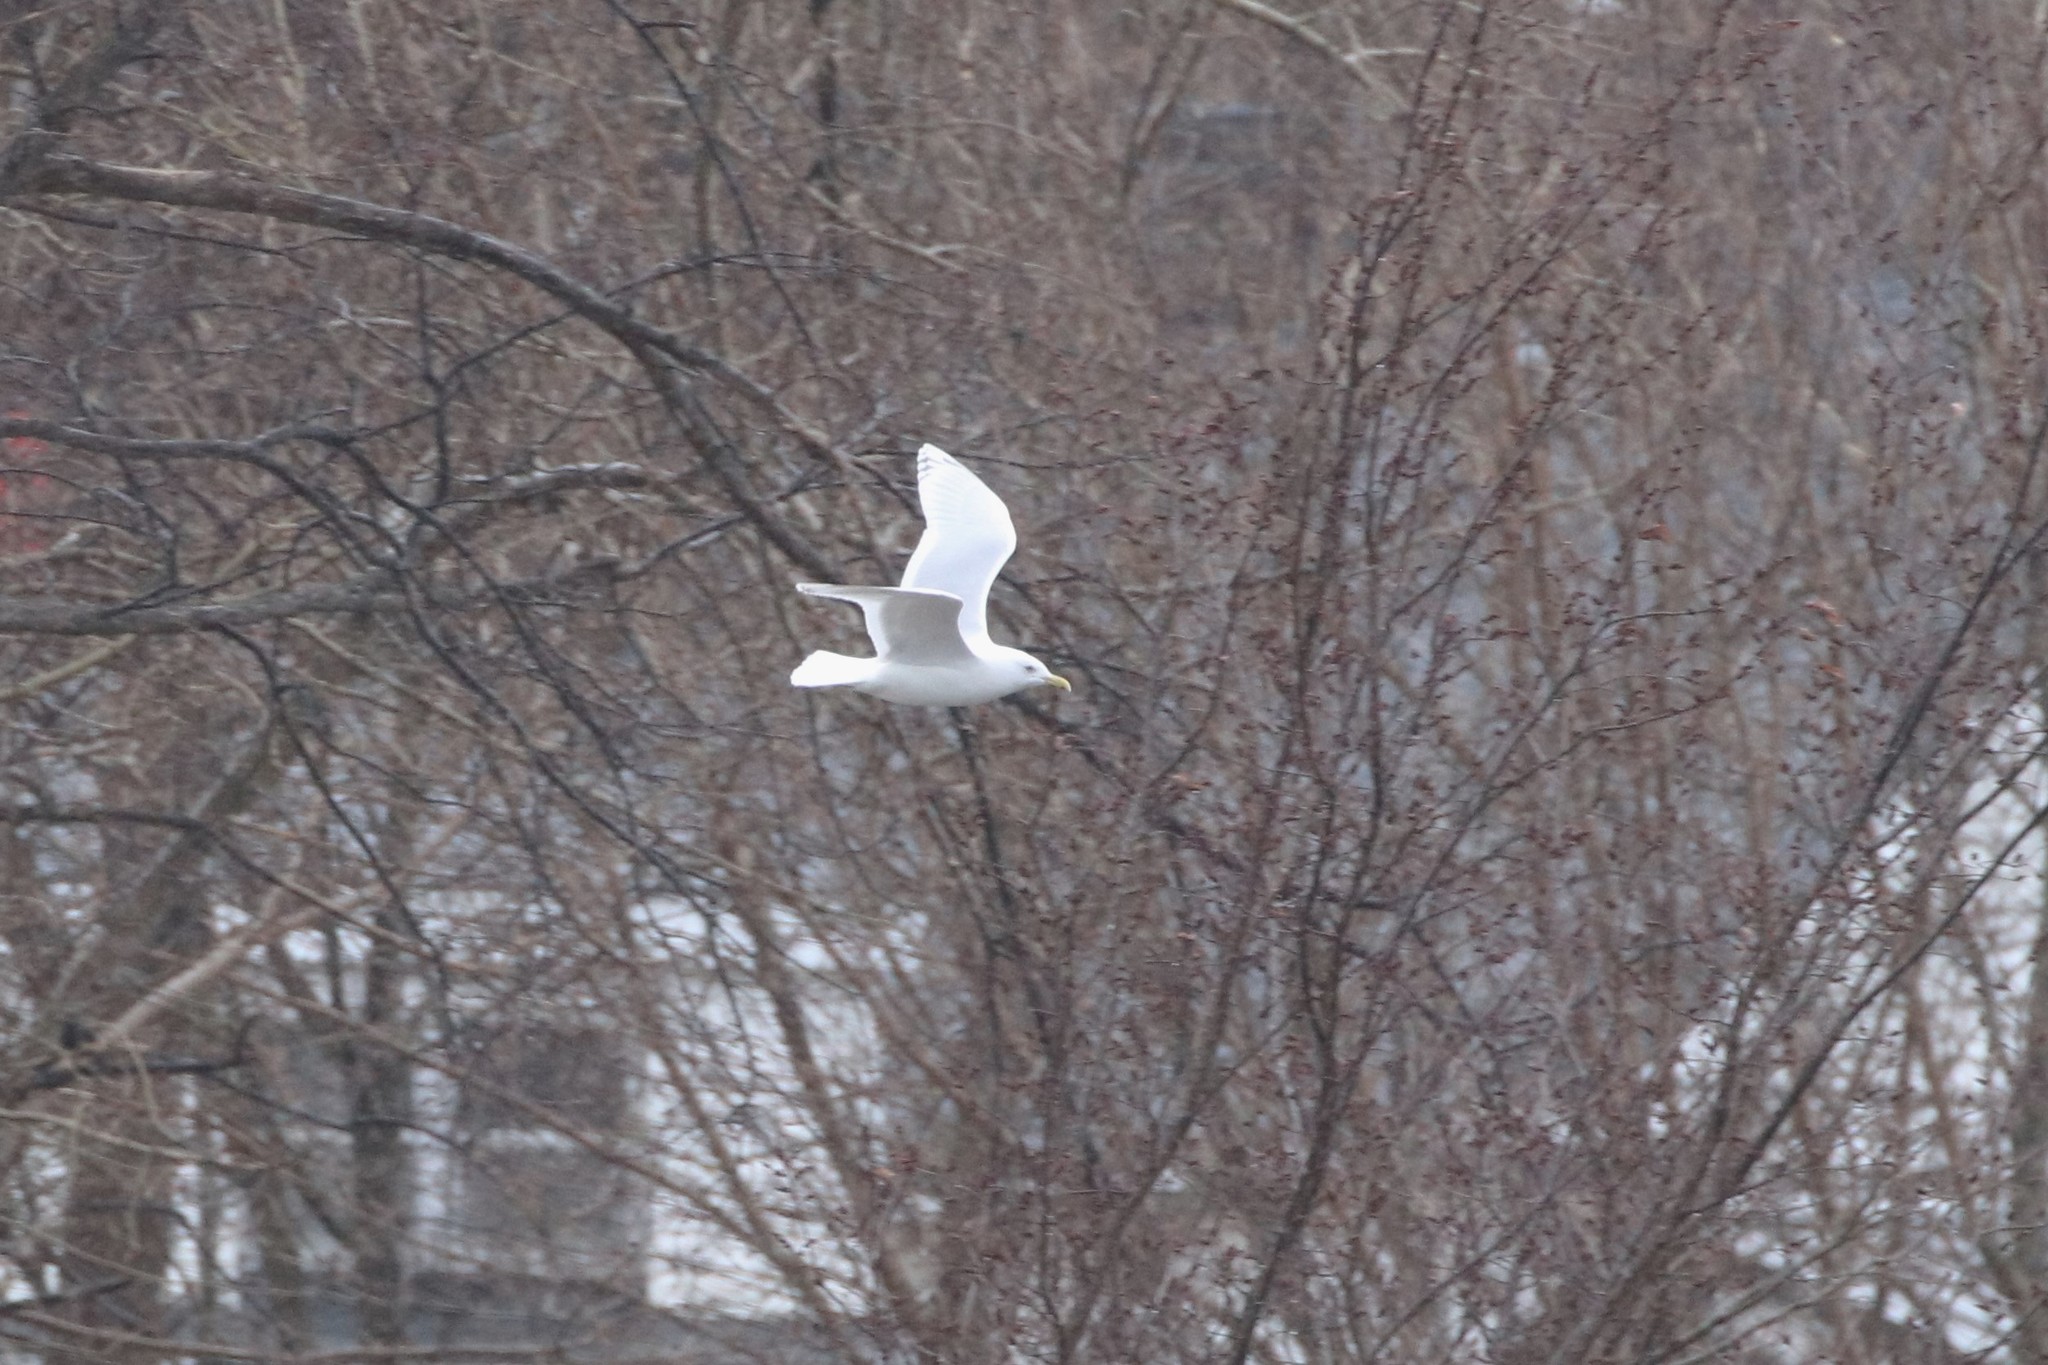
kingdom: Animalia
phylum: Chordata
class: Aves
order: Charadriiformes
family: Laridae
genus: Larus
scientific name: Larus glaucoides
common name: Iceland gull
